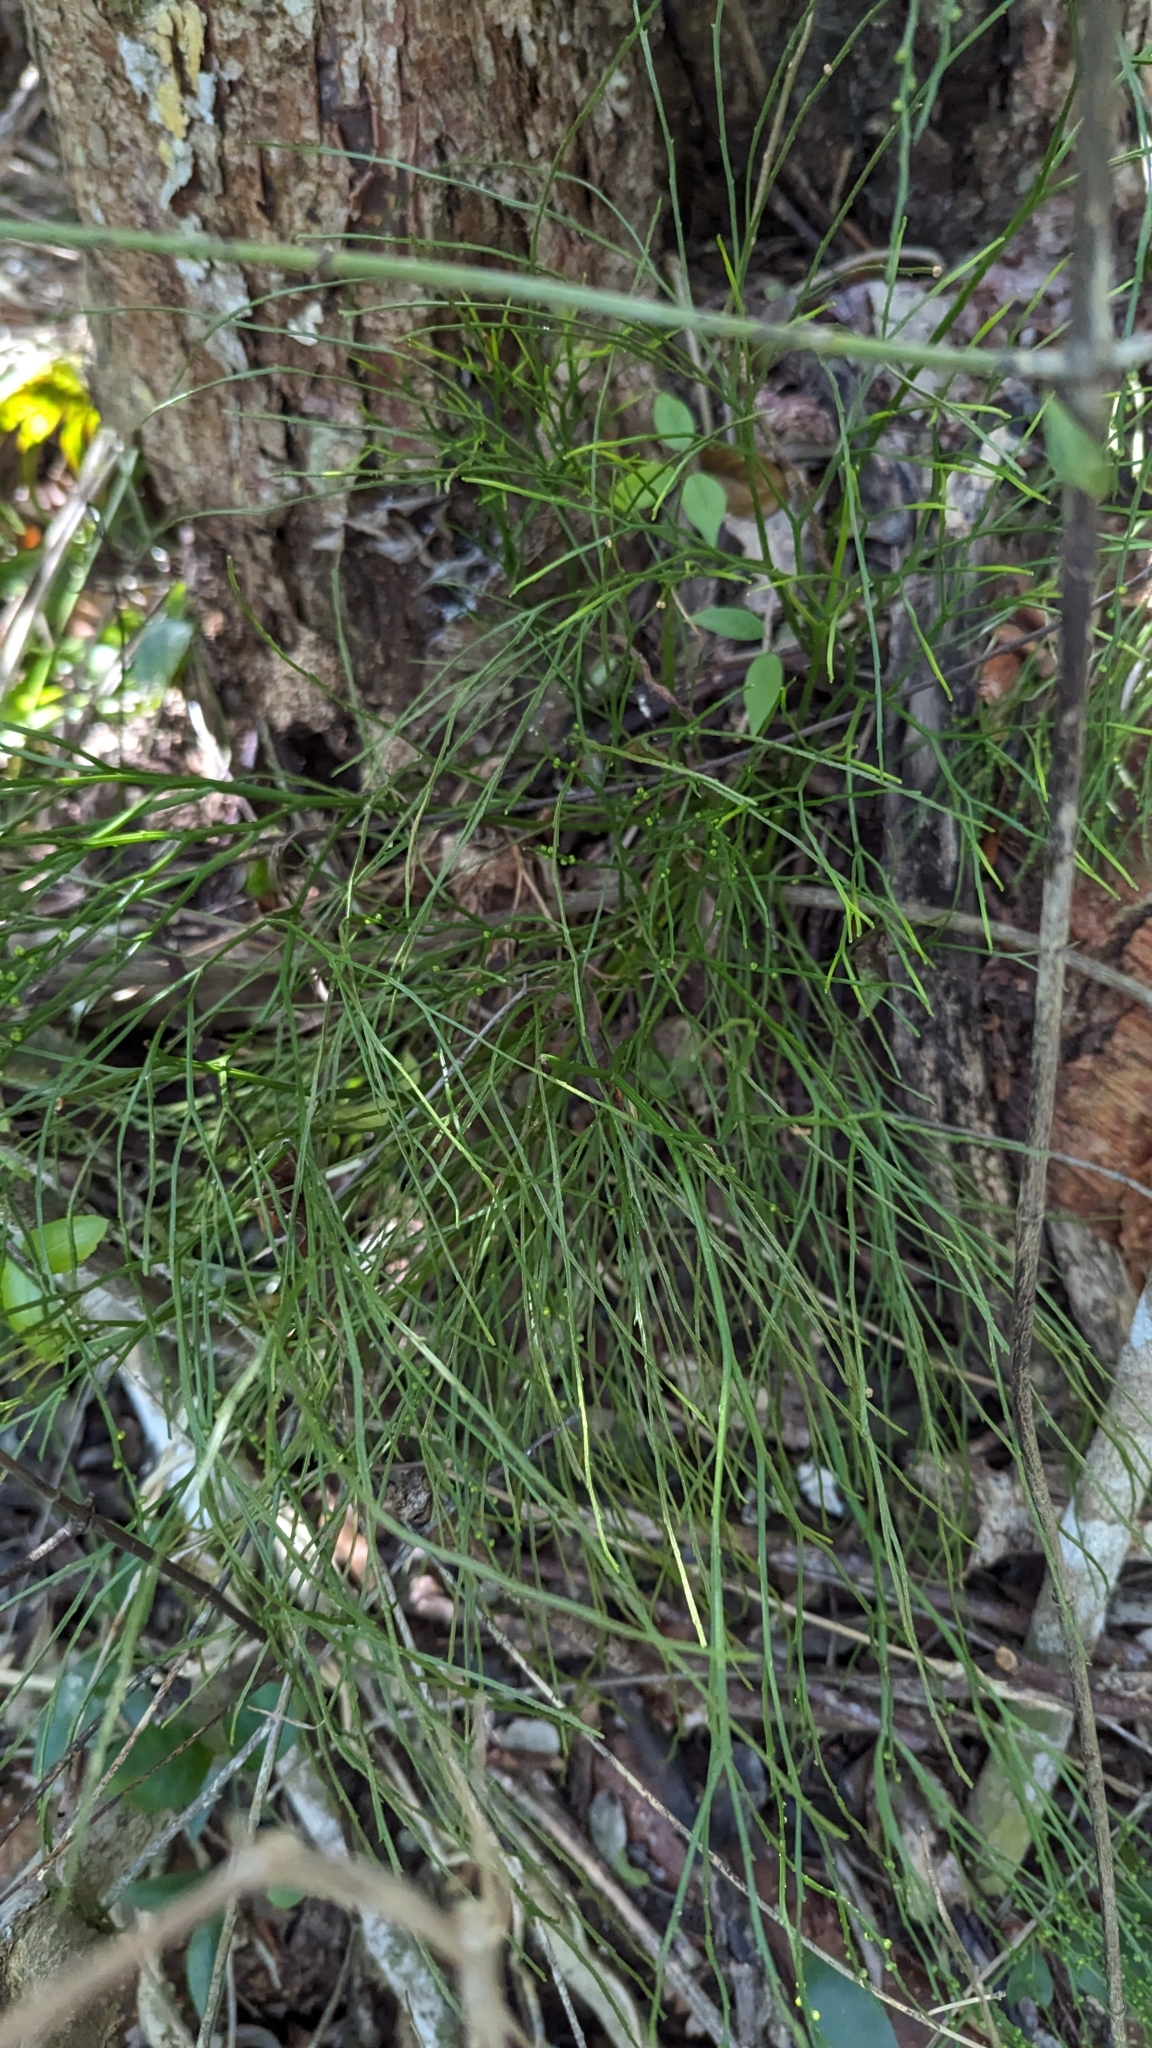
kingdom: Plantae
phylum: Tracheophyta
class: Polypodiopsida
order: Psilotales
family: Psilotaceae
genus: Psilotum
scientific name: Psilotum nudum
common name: Skeleton fork fern
